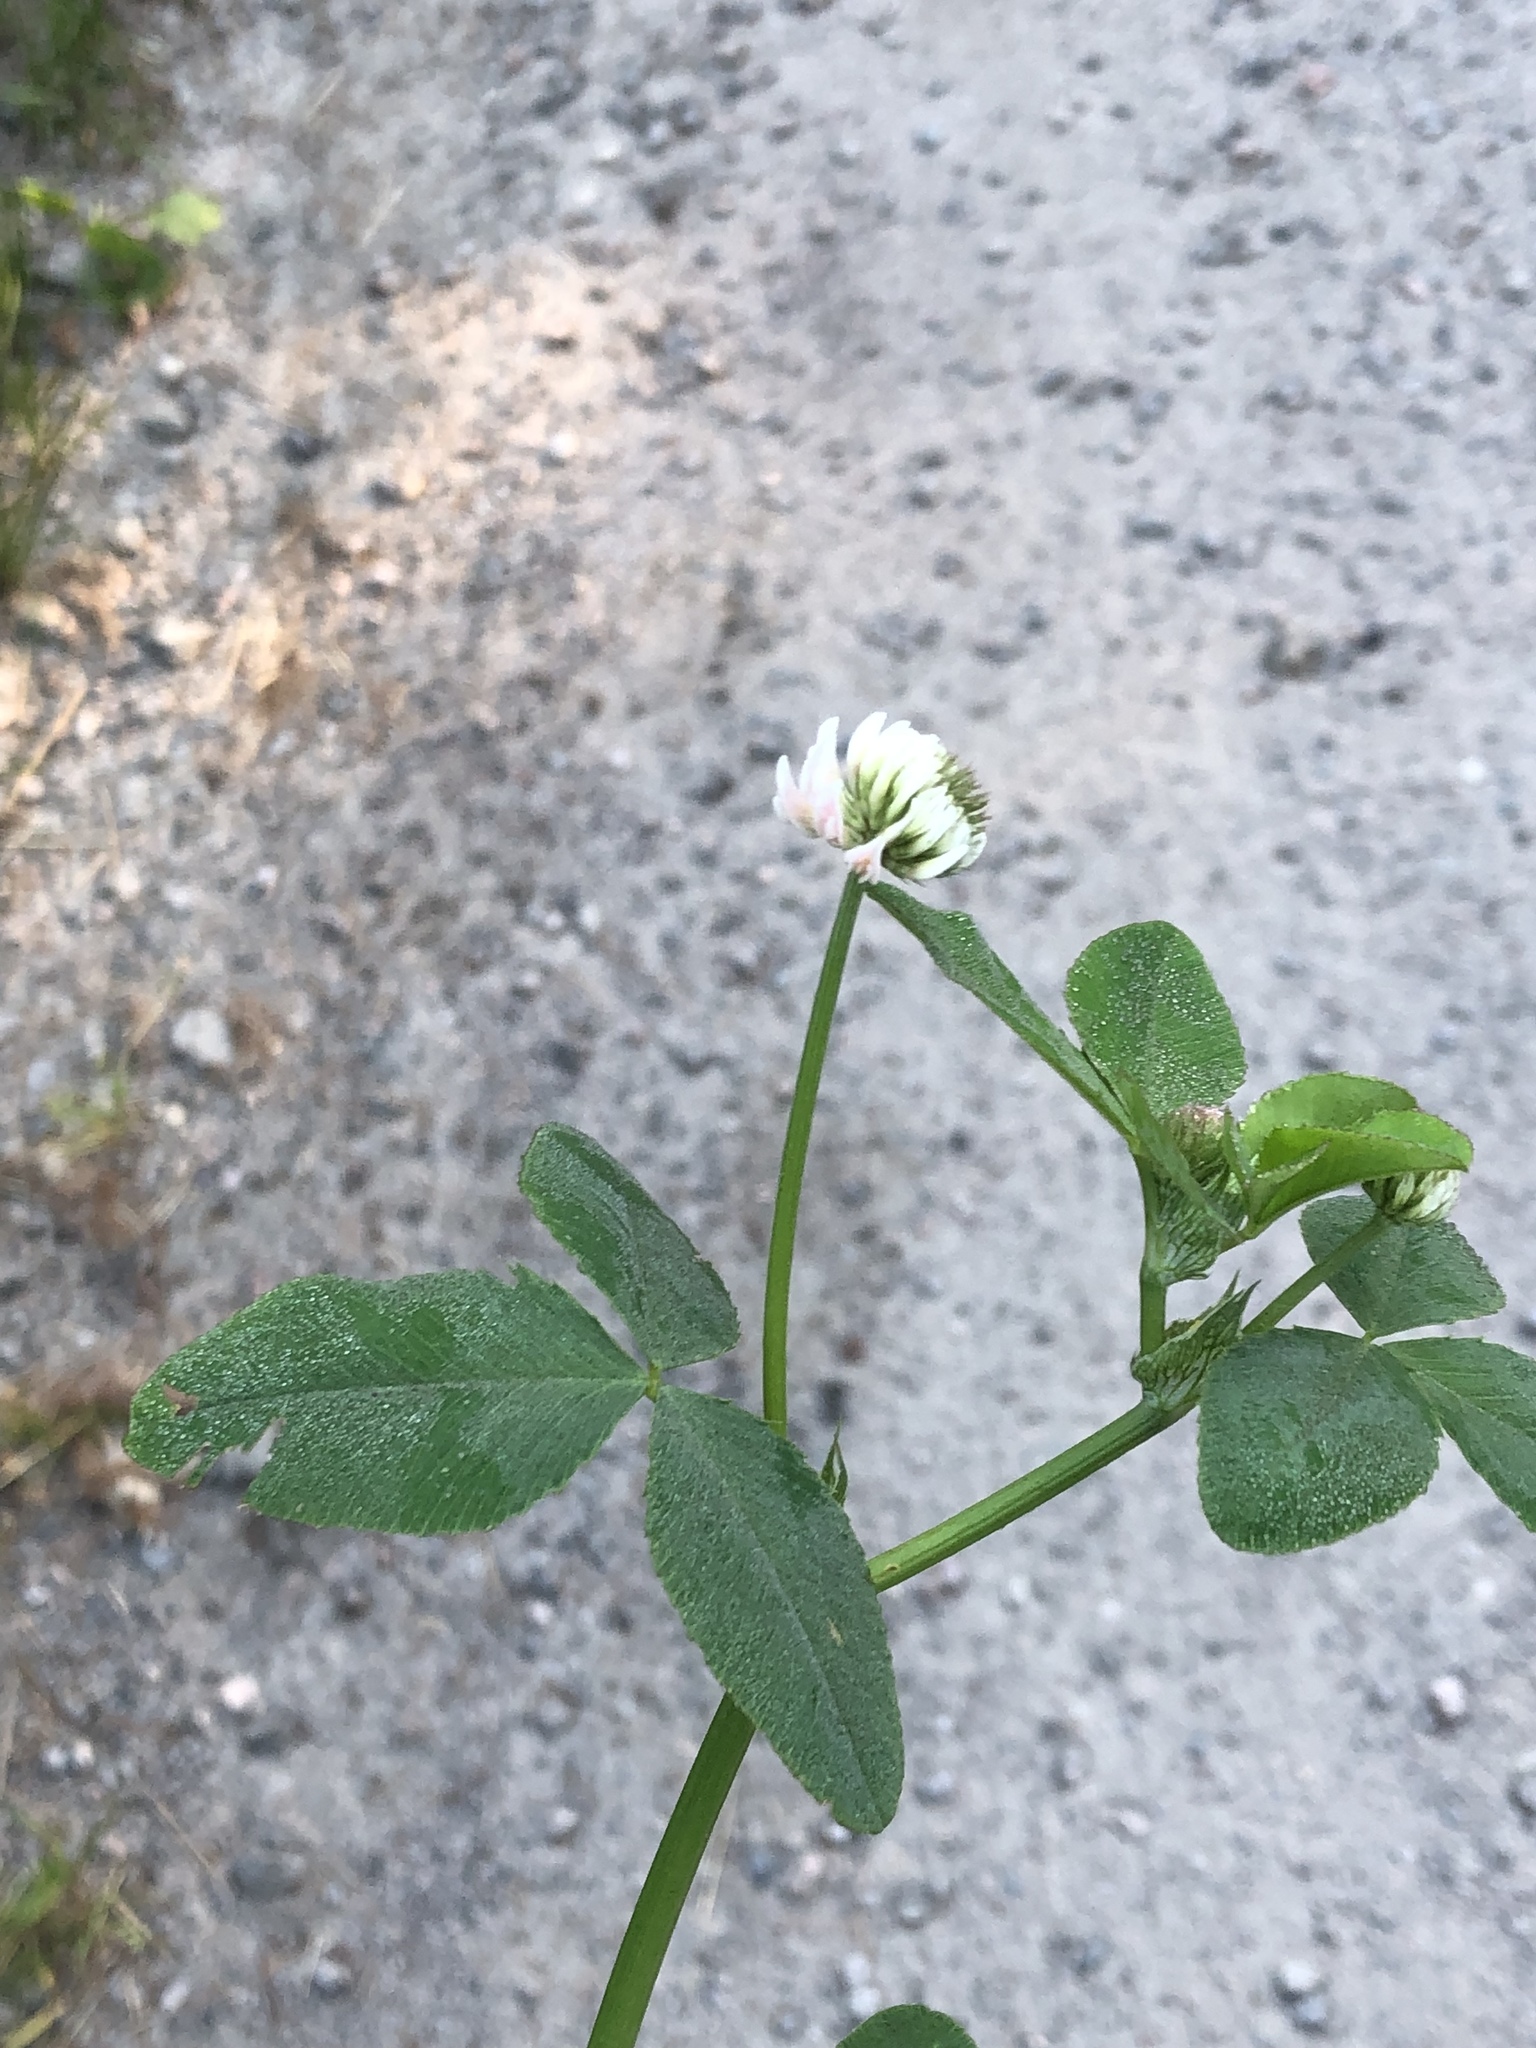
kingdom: Plantae
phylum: Tracheophyta
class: Magnoliopsida
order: Fabales
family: Fabaceae
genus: Trifolium
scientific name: Trifolium hybridum
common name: Alsike clover
